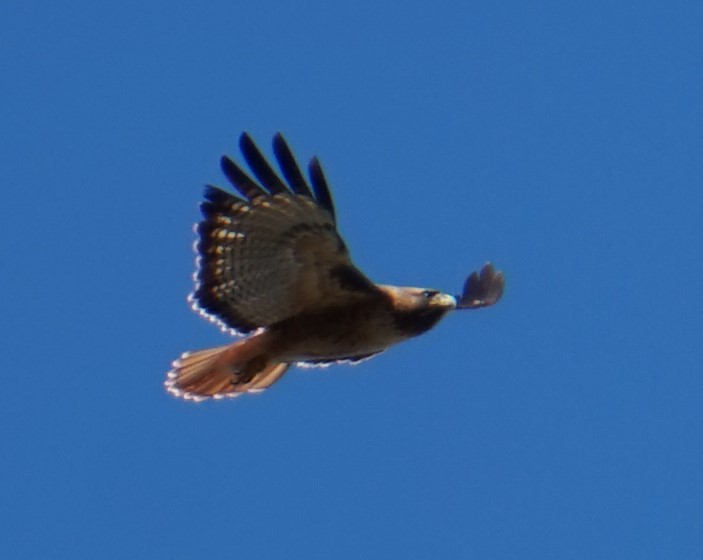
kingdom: Animalia
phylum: Chordata
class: Aves
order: Accipitriformes
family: Accipitridae
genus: Buteo
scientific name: Buteo jamaicensis
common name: Red-tailed hawk
